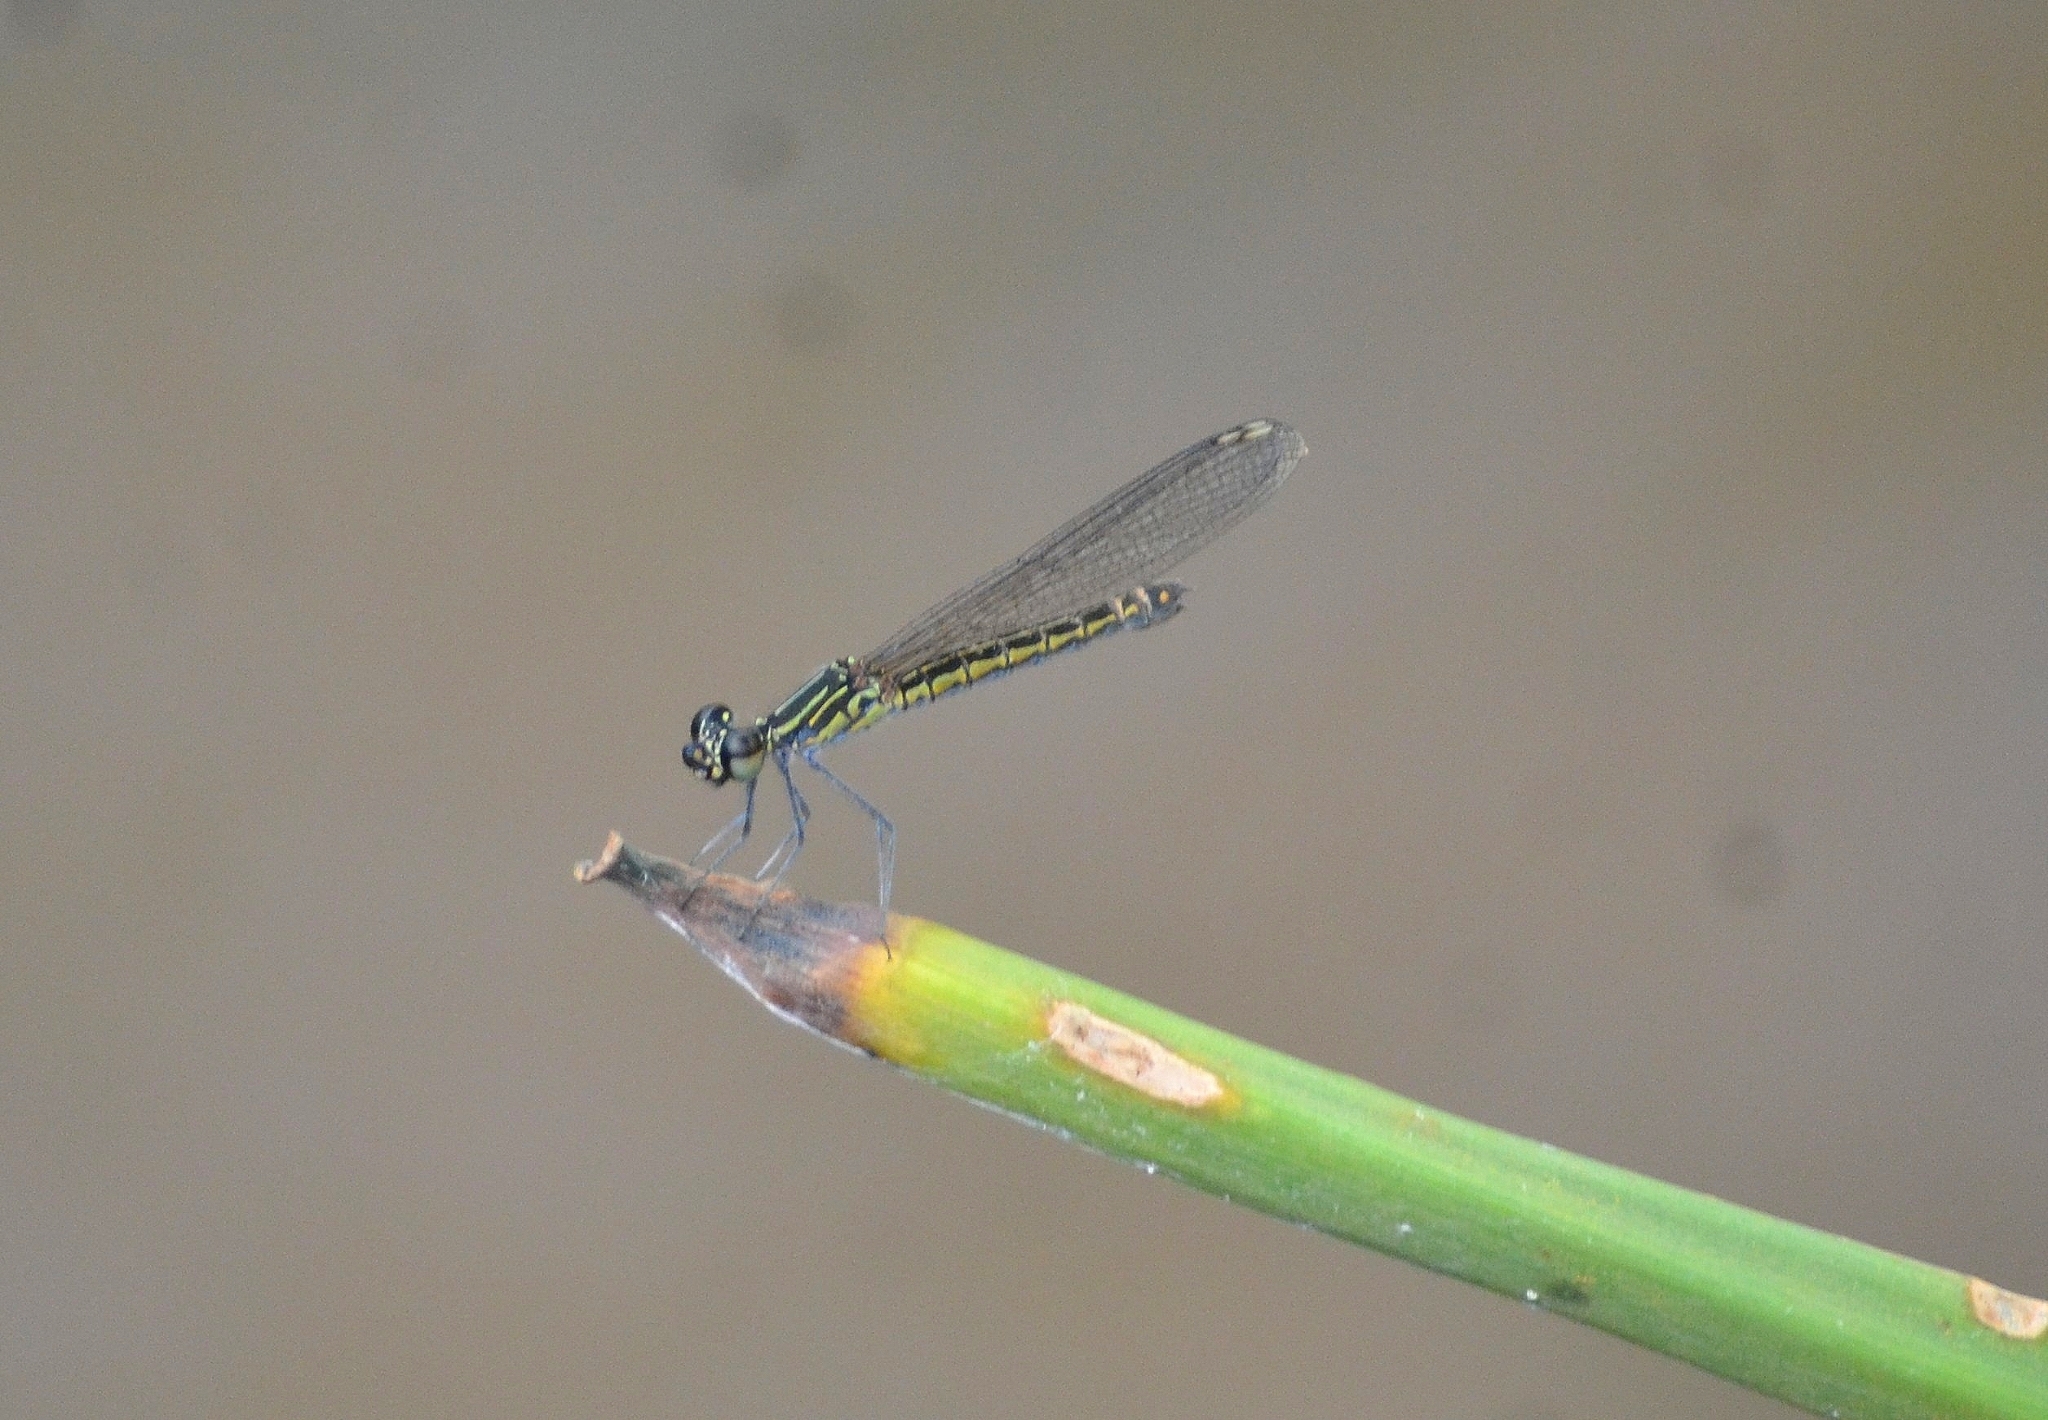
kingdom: Animalia
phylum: Arthropoda
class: Insecta
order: Odonata
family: Chlorocyphidae
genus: Libellago
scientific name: Libellago indica
